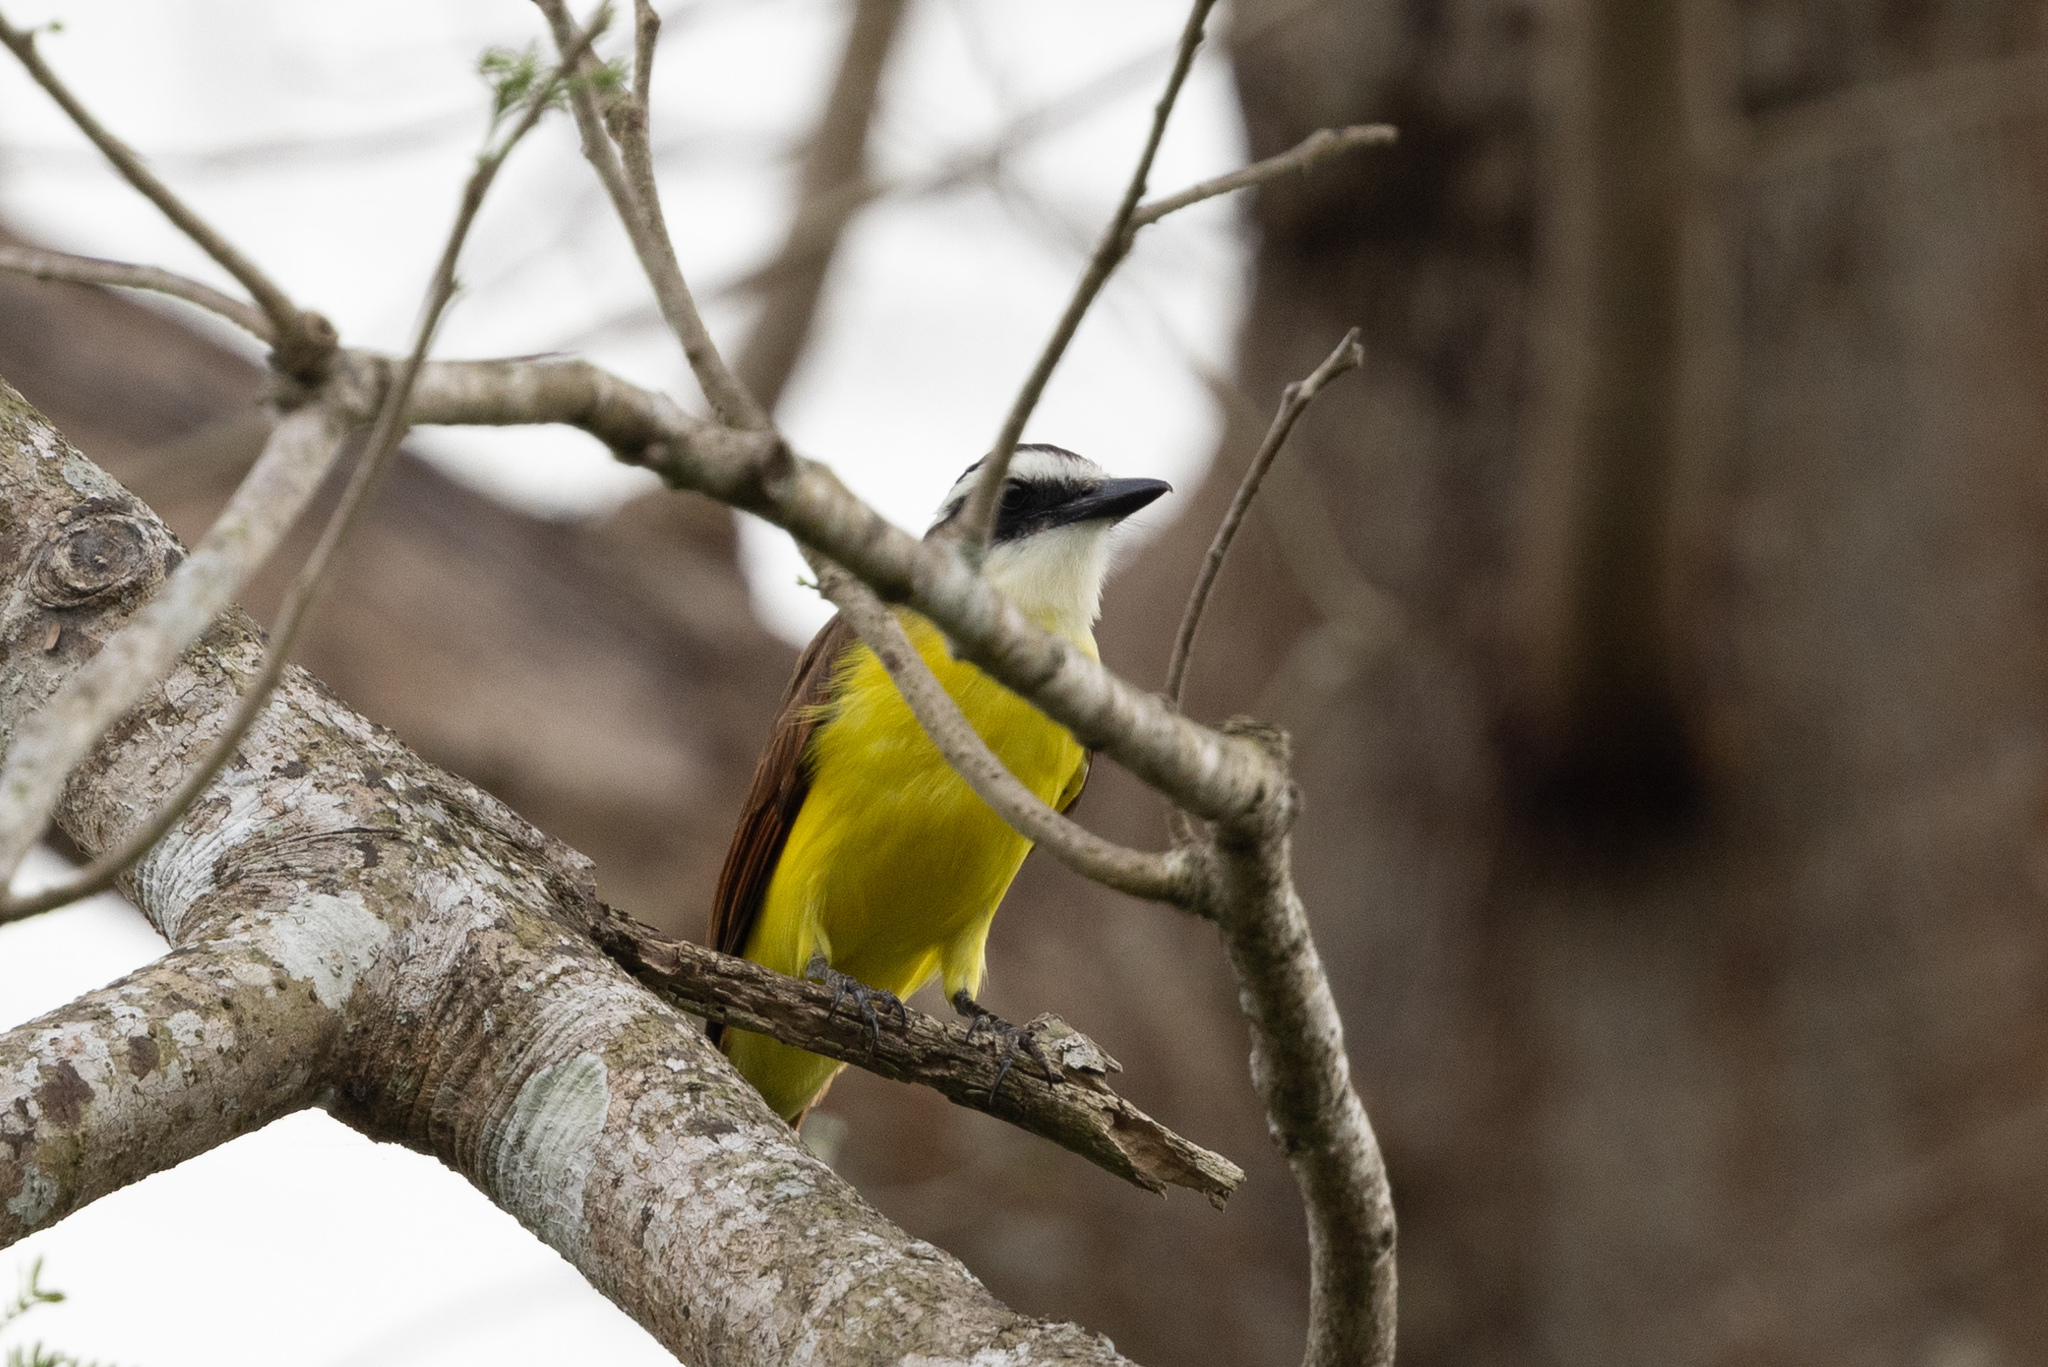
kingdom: Animalia
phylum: Chordata
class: Aves
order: Passeriformes
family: Tyrannidae
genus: Pitangus
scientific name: Pitangus sulphuratus
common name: Great kiskadee
